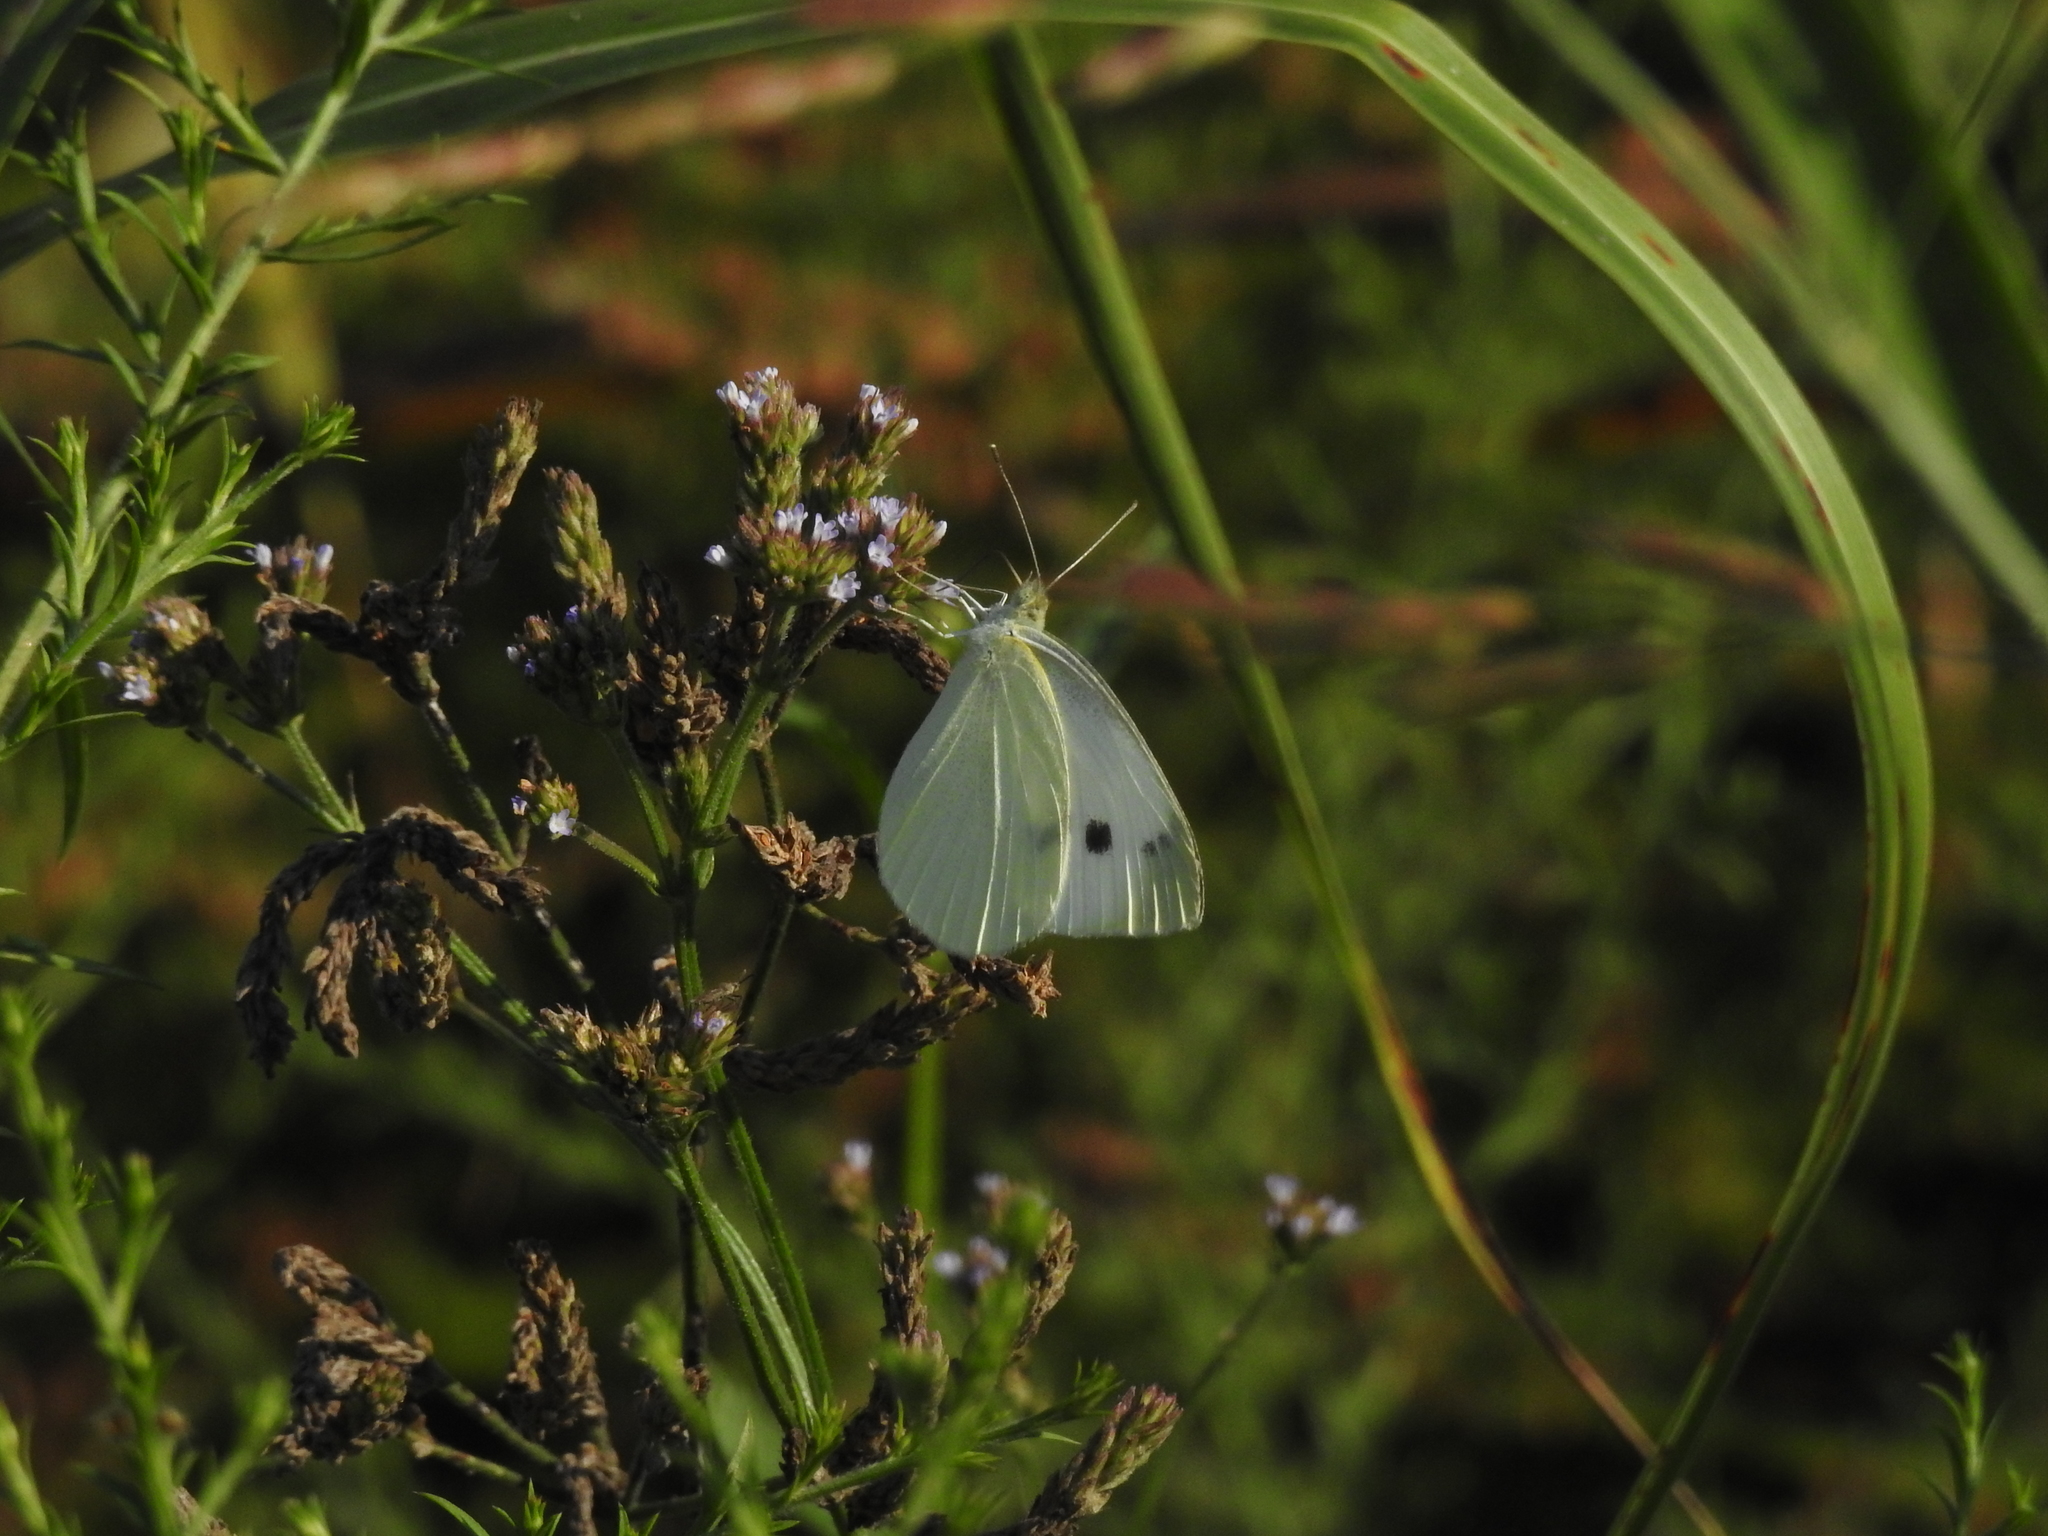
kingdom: Animalia
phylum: Arthropoda
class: Insecta
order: Lepidoptera
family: Pieridae
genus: Pieris
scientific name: Pieris rapae
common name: Small white
